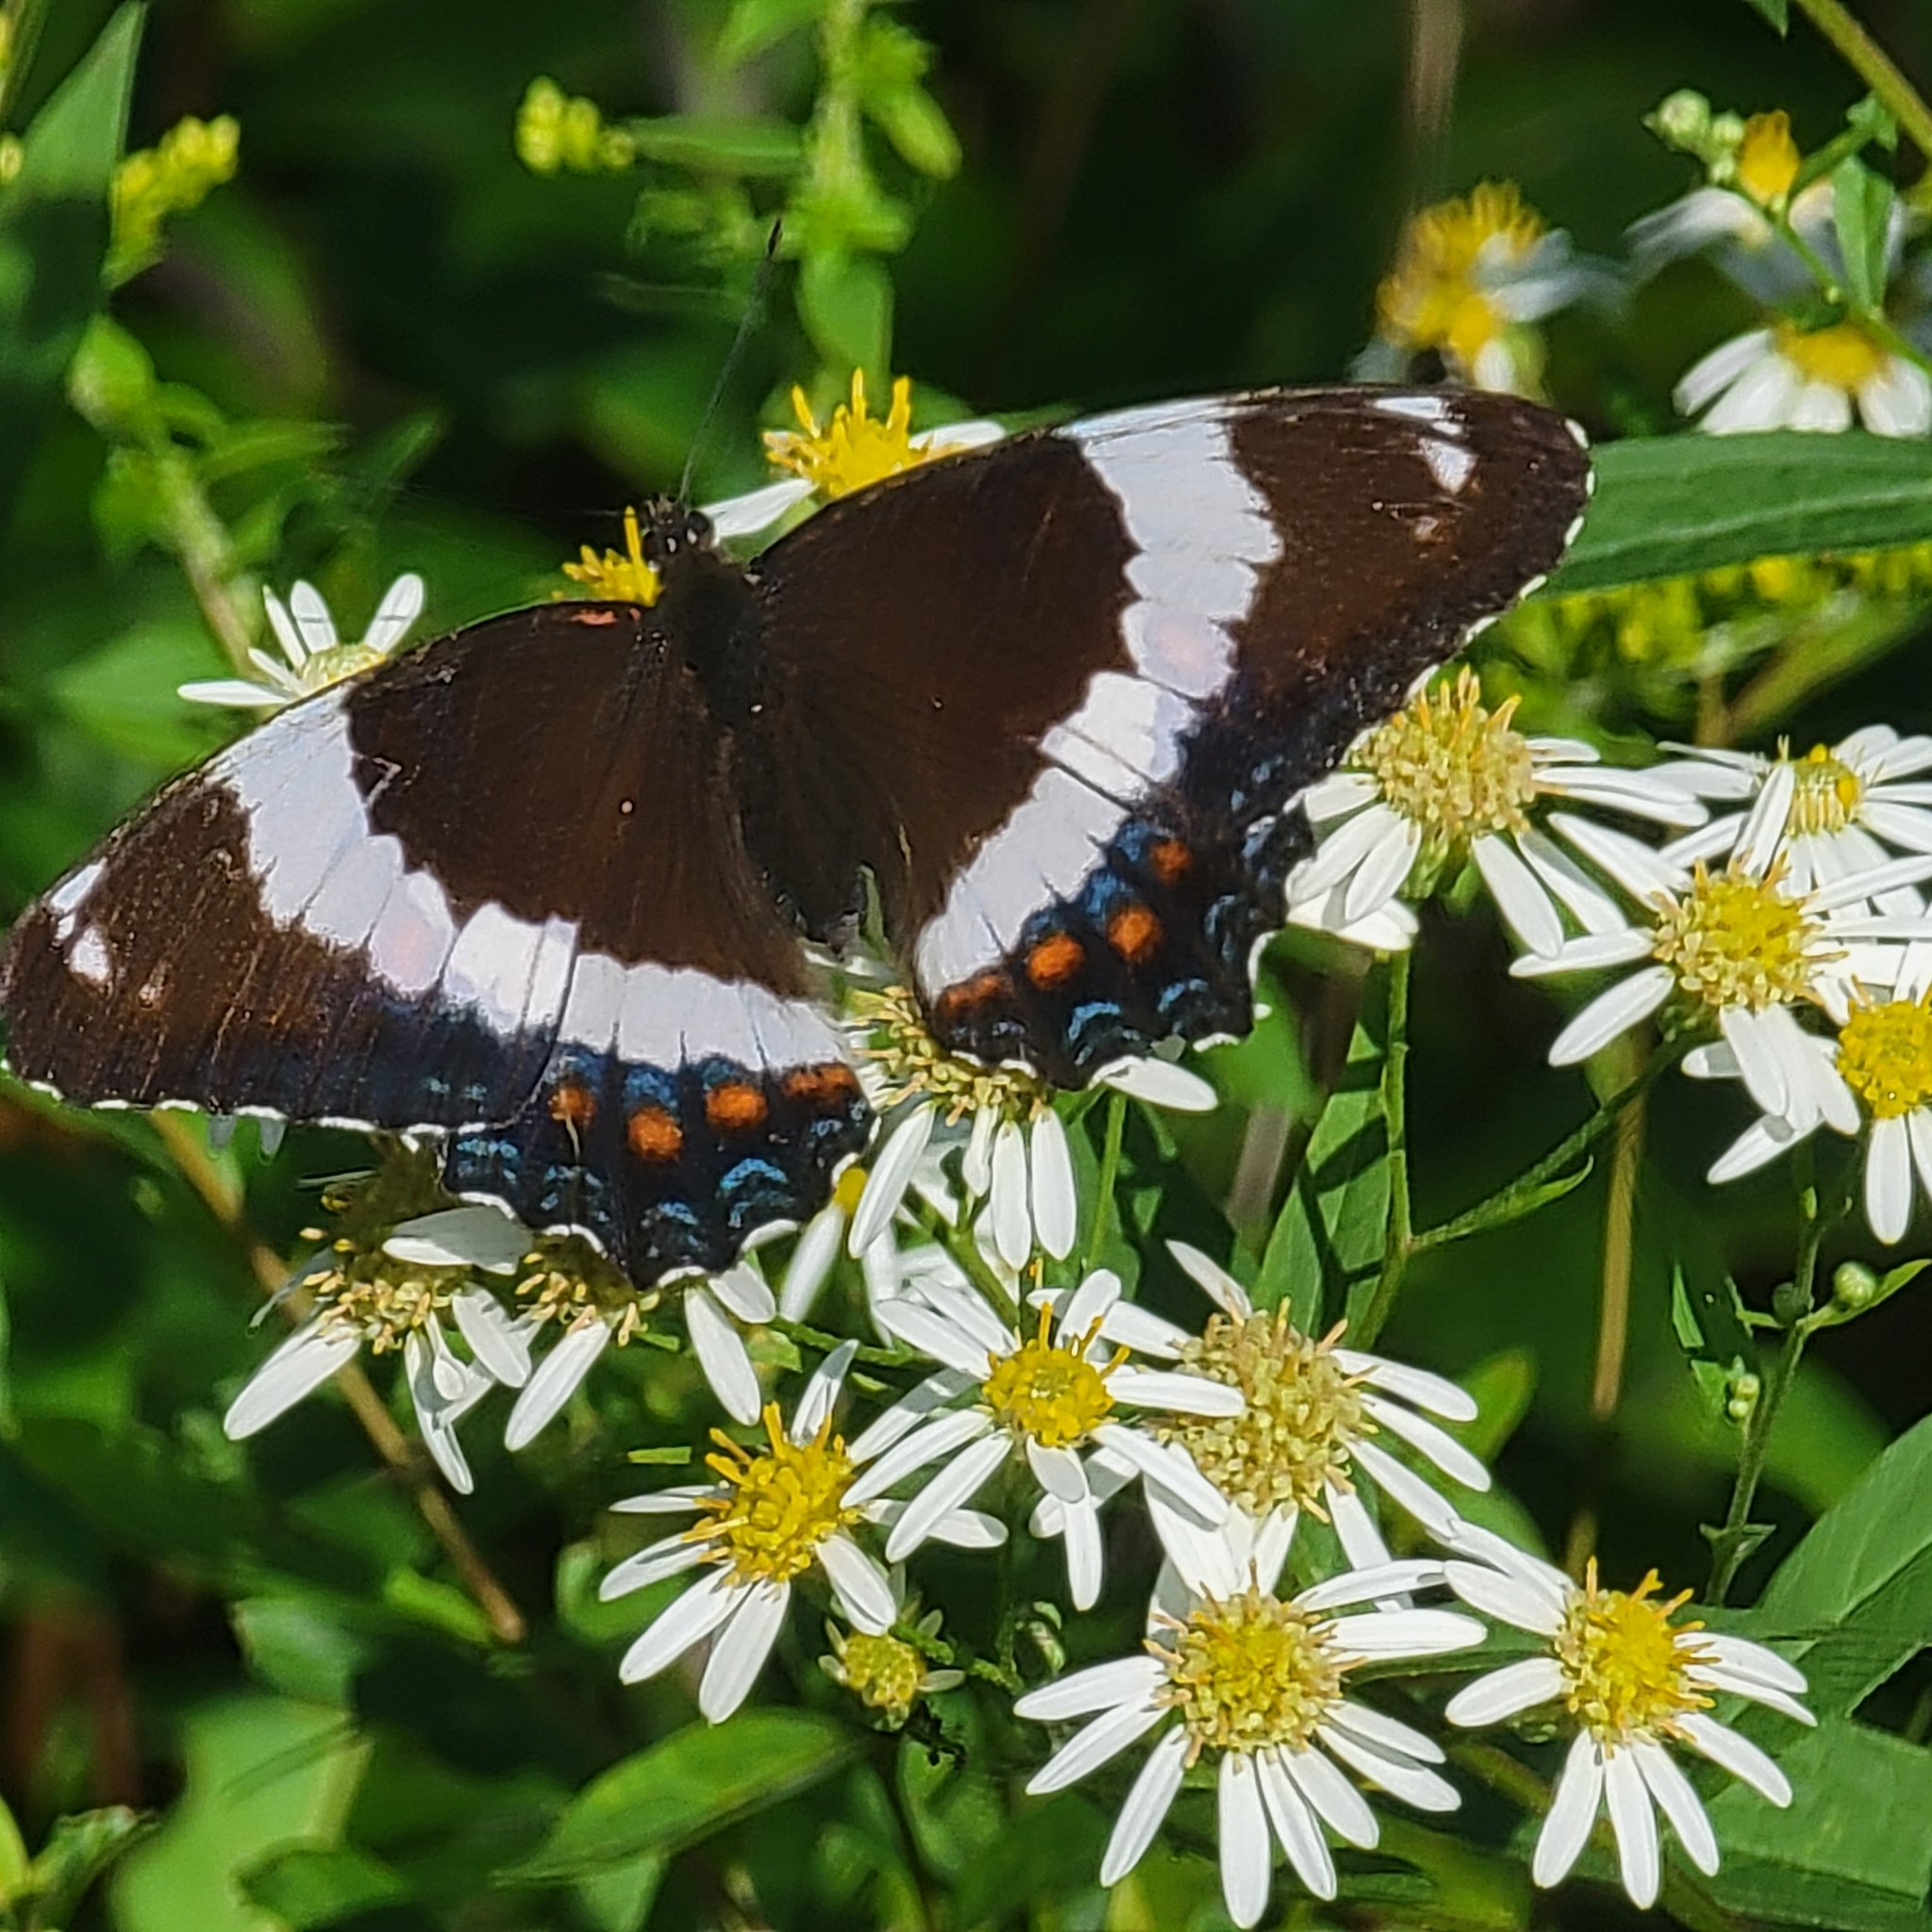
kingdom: Animalia
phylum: Arthropoda
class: Insecta
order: Lepidoptera
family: Nymphalidae
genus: Limenitis
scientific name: Limenitis arthemis
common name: Red-spotted admiral
